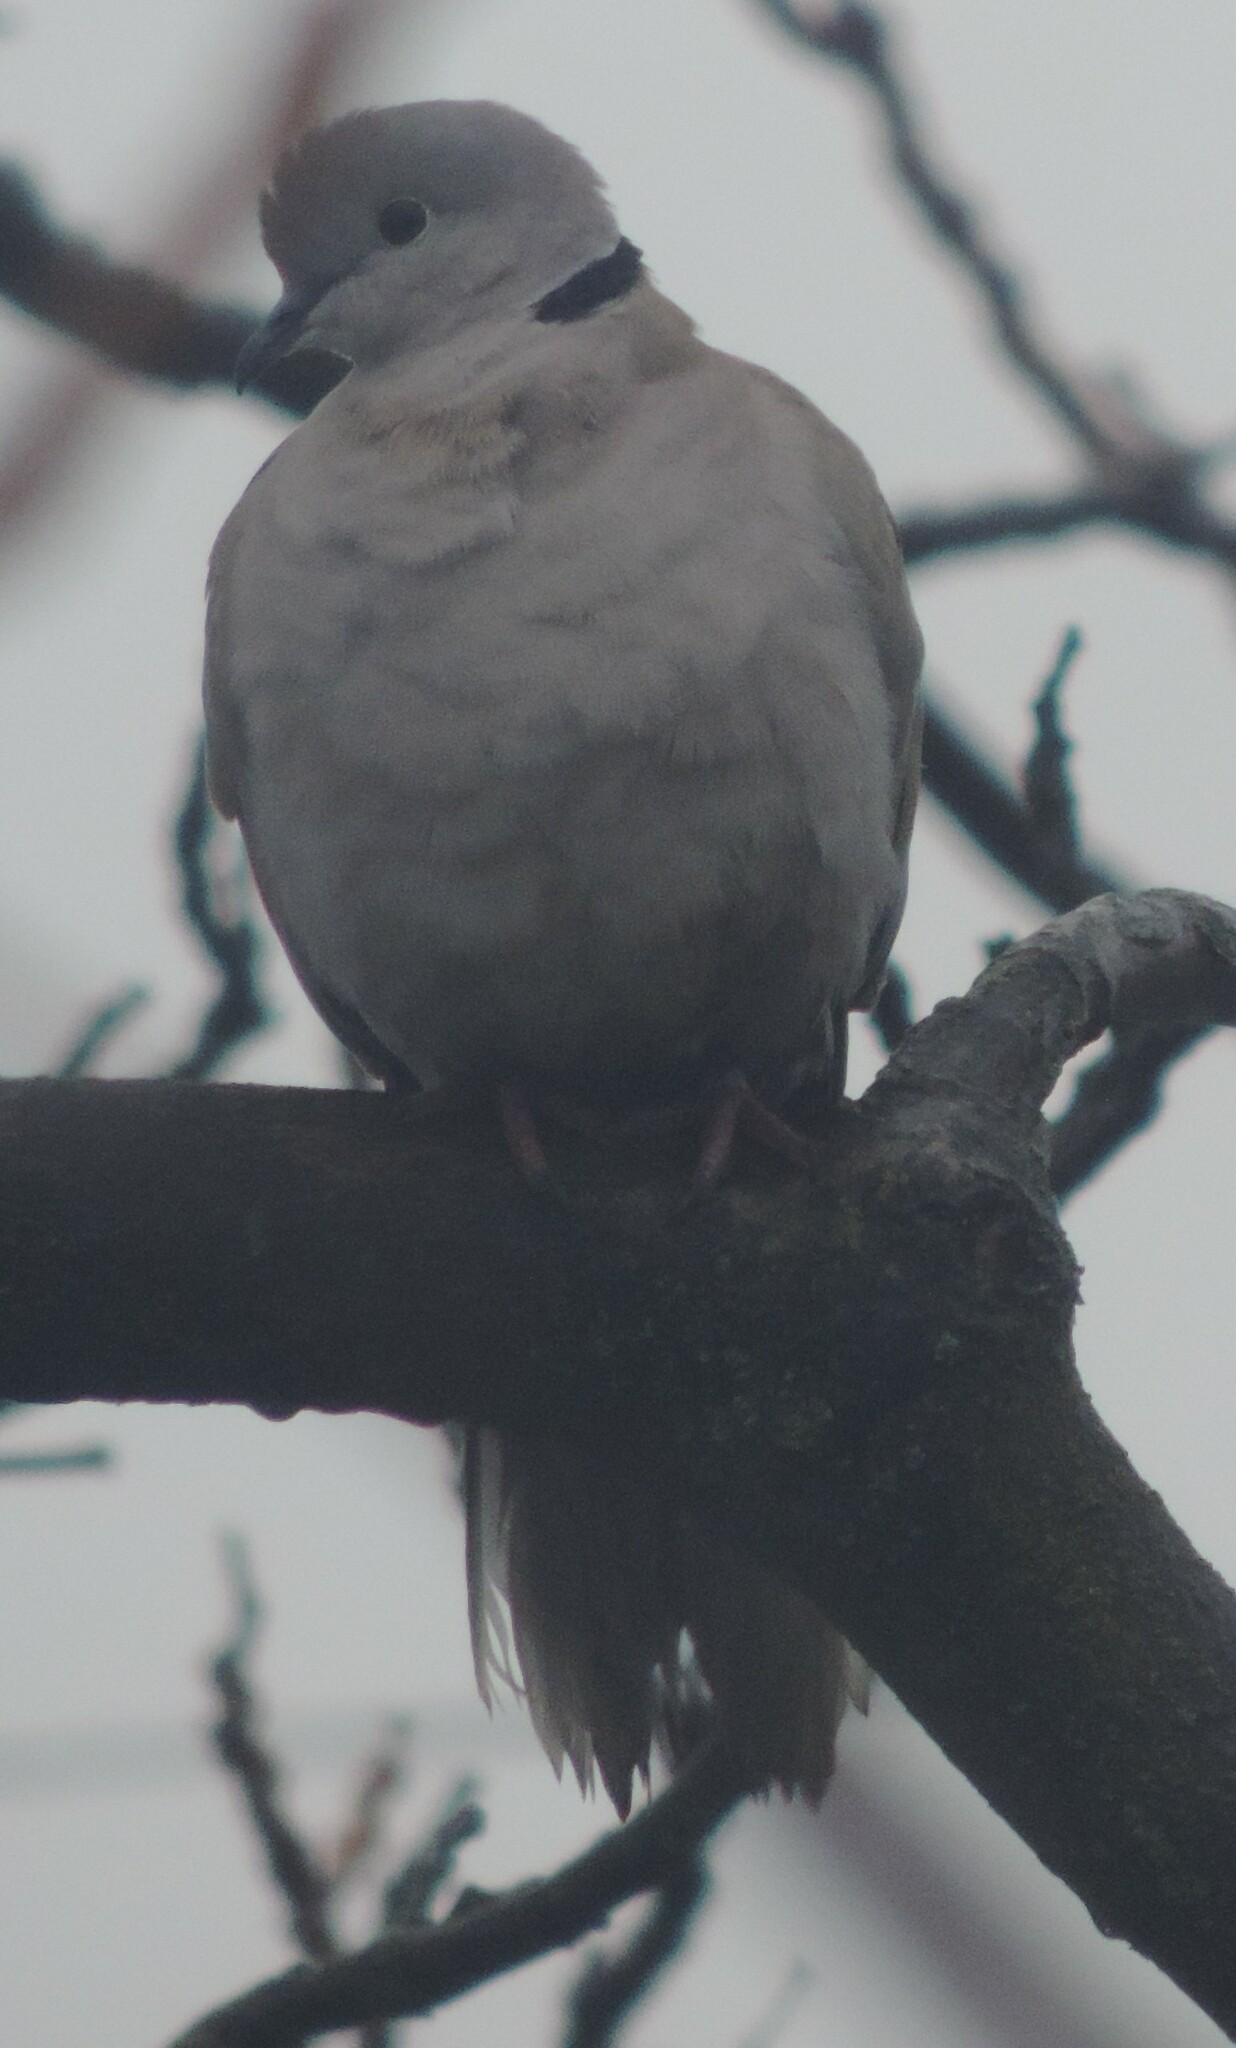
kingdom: Animalia
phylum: Chordata
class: Aves
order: Columbiformes
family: Columbidae
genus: Streptopelia
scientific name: Streptopelia decaocto
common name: Eurasian collared dove
